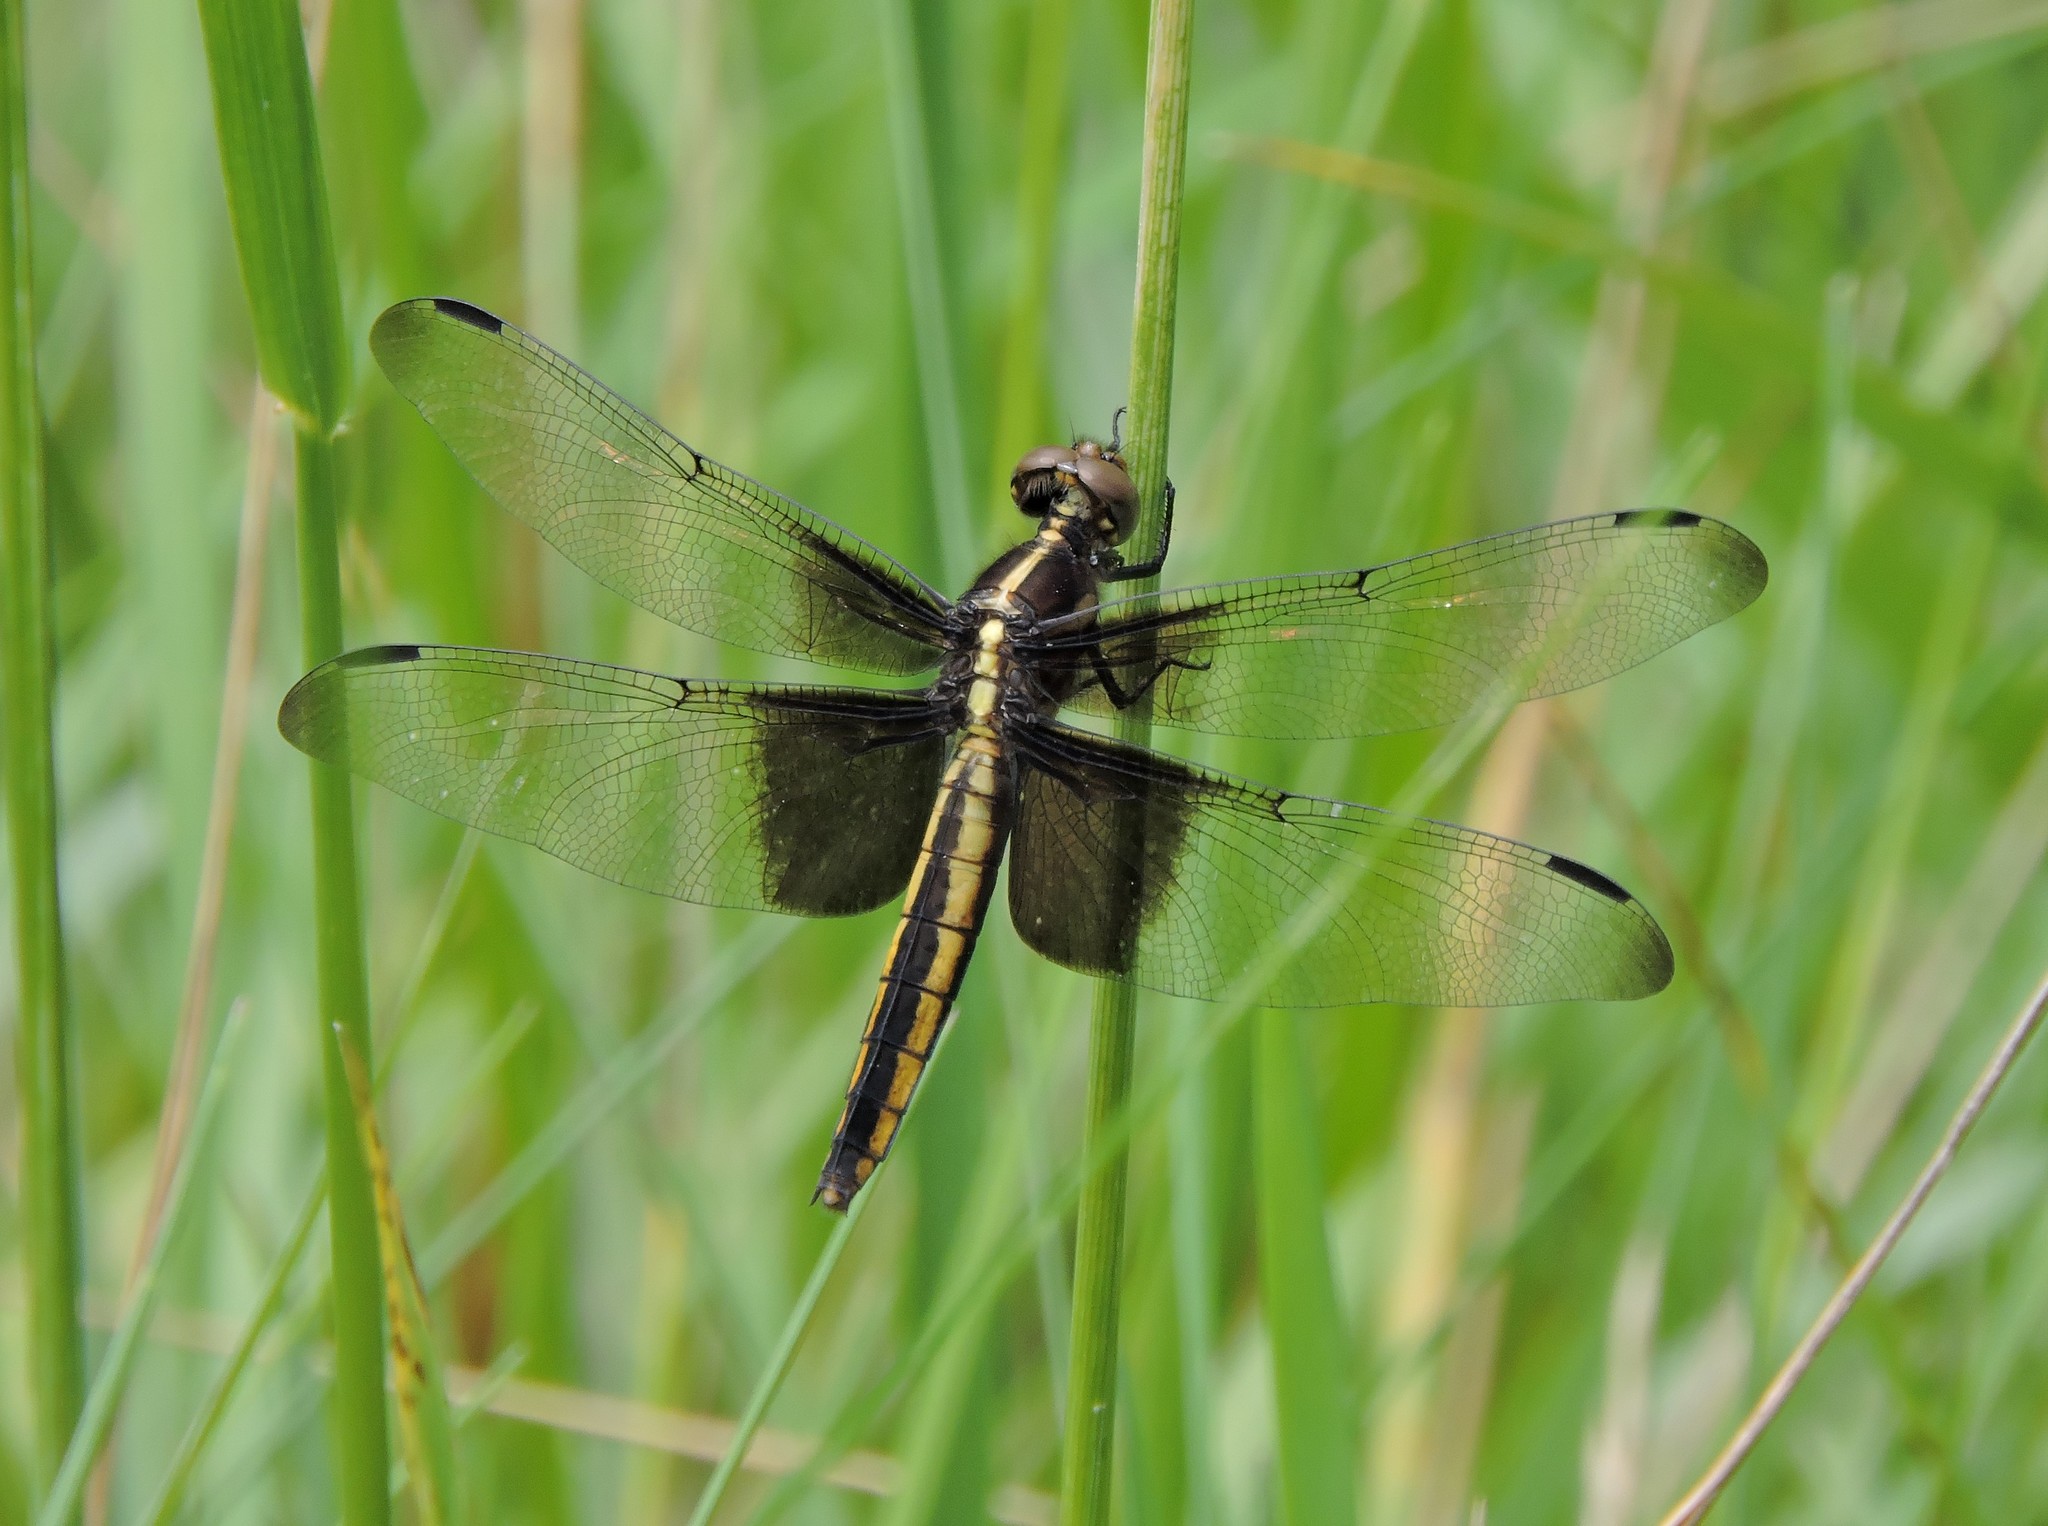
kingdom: Animalia
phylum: Arthropoda
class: Insecta
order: Odonata
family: Libellulidae
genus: Libellula
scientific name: Libellula luctuosa
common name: Widow skimmer
